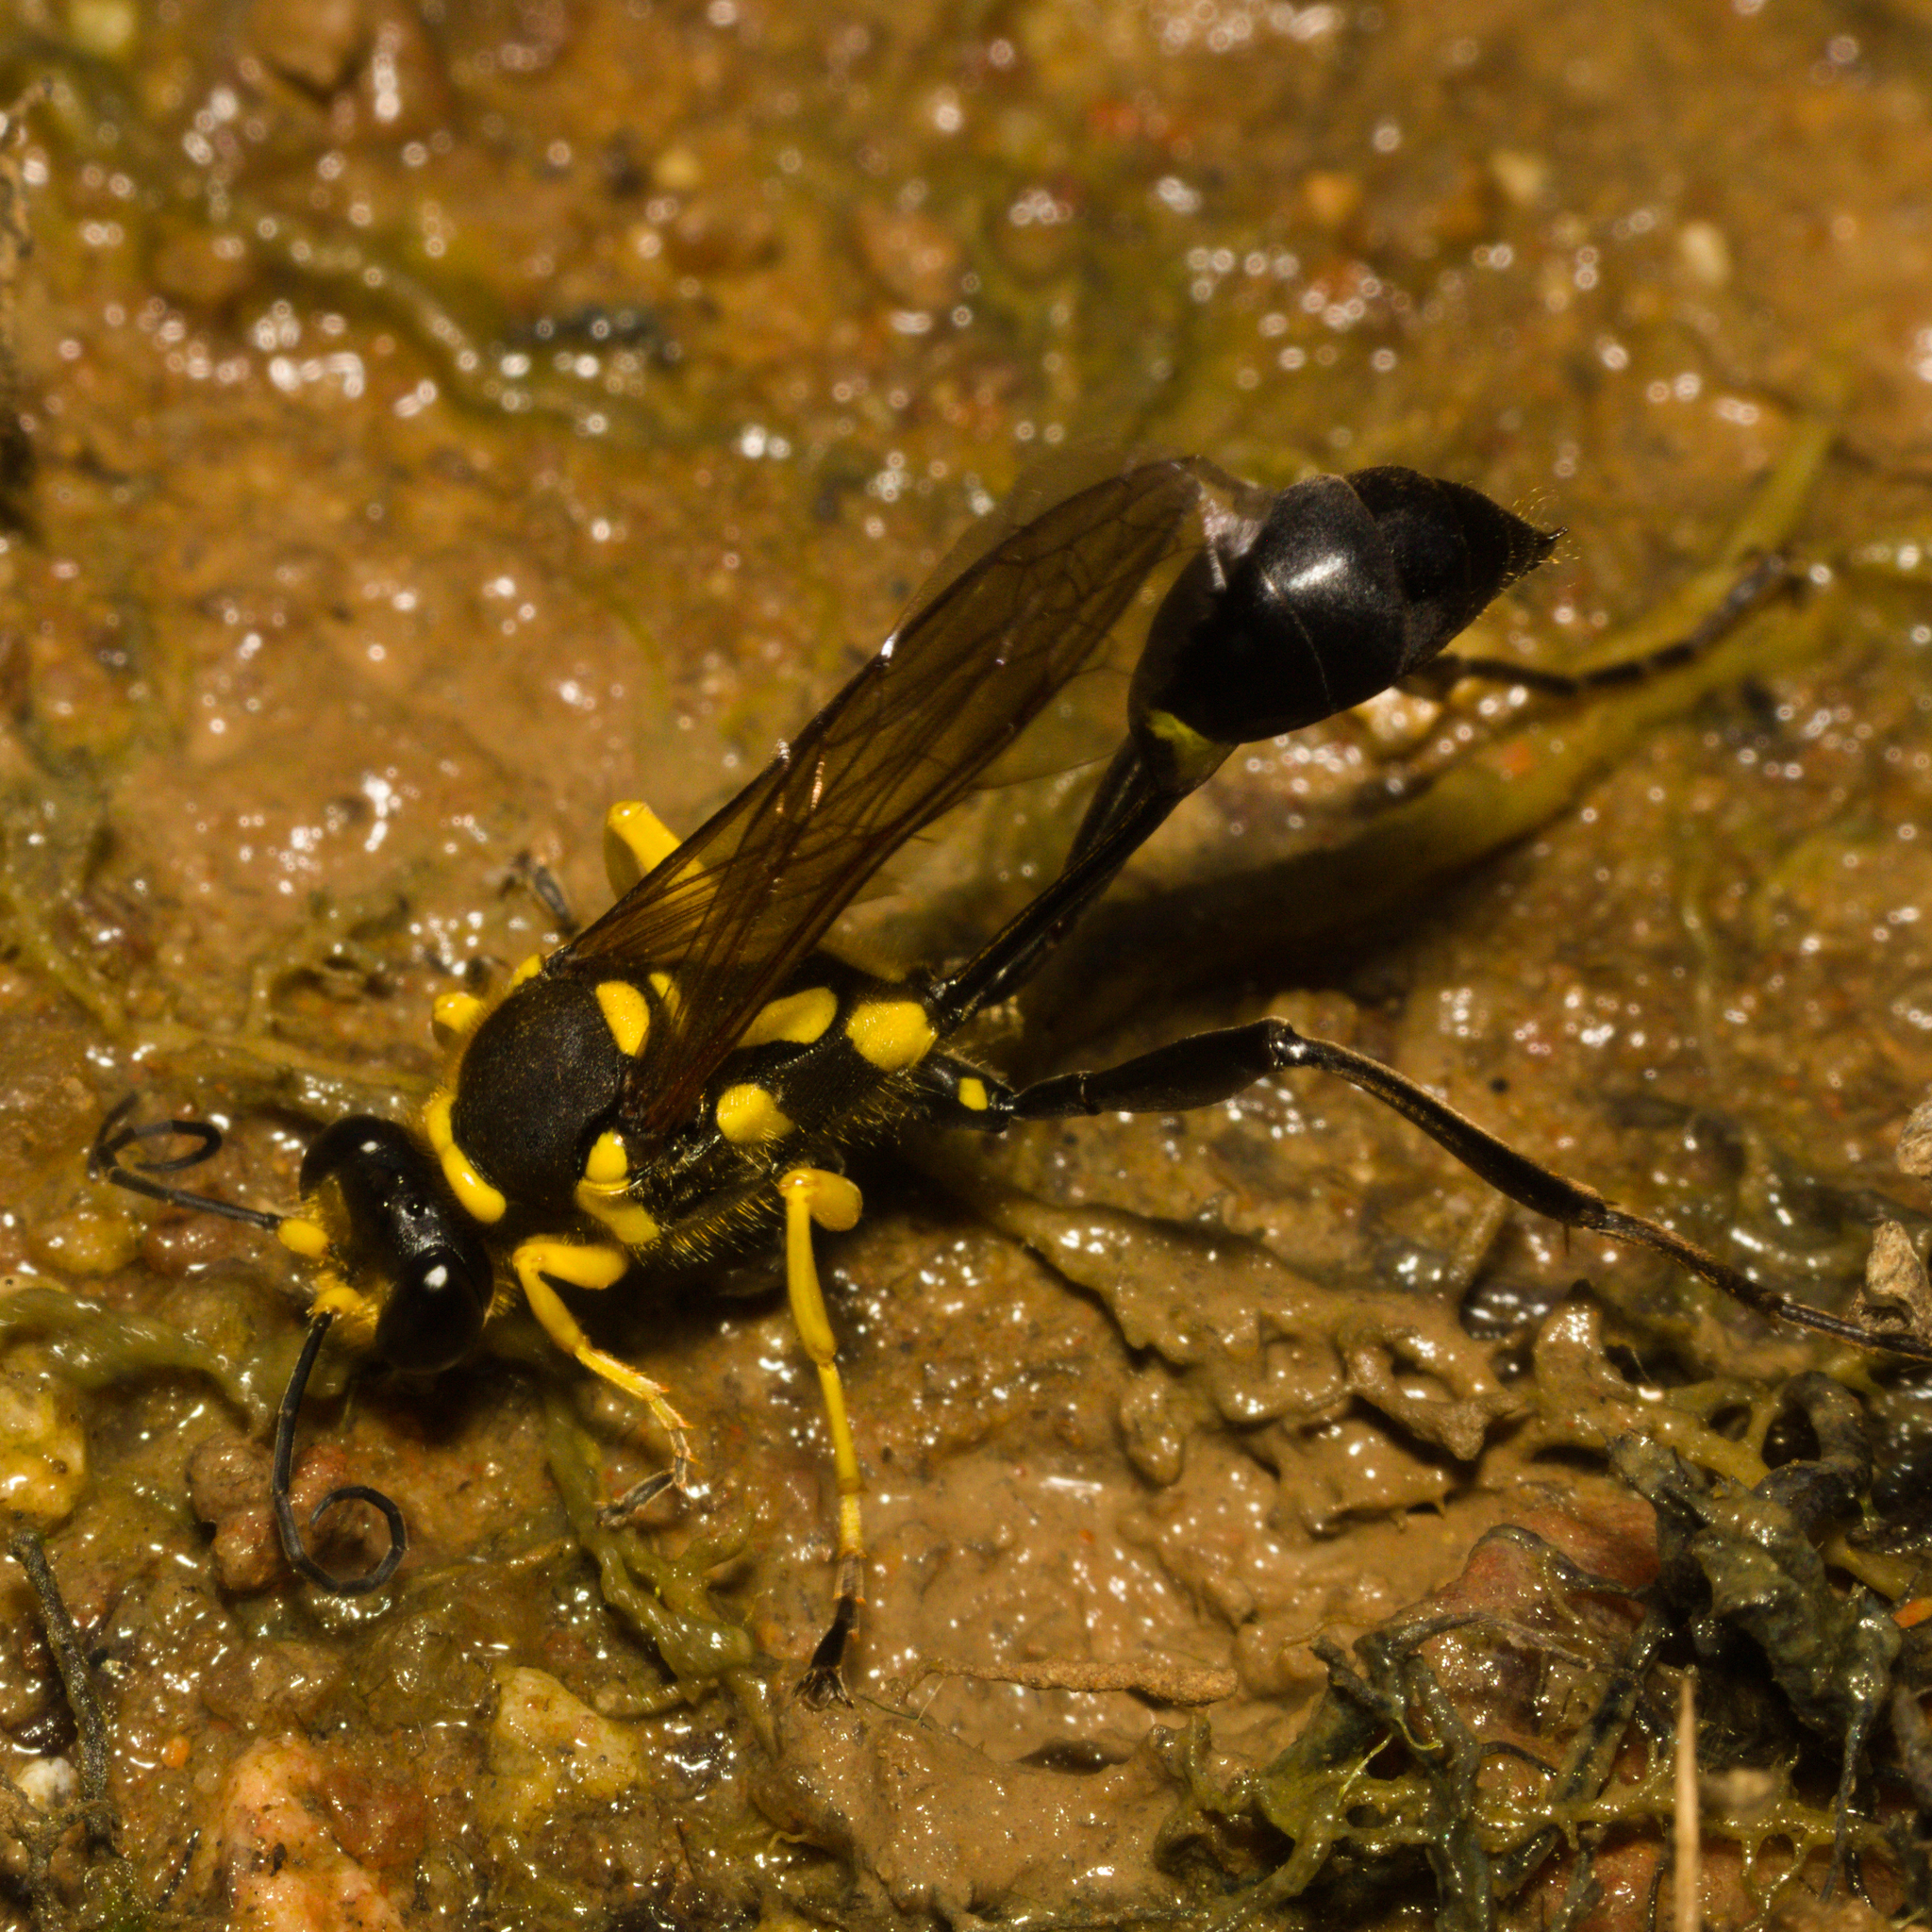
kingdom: Animalia
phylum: Arthropoda
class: Insecta
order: Hymenoptera
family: Sphecidae
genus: Sceliphron
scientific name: Sceliphron fistularium
